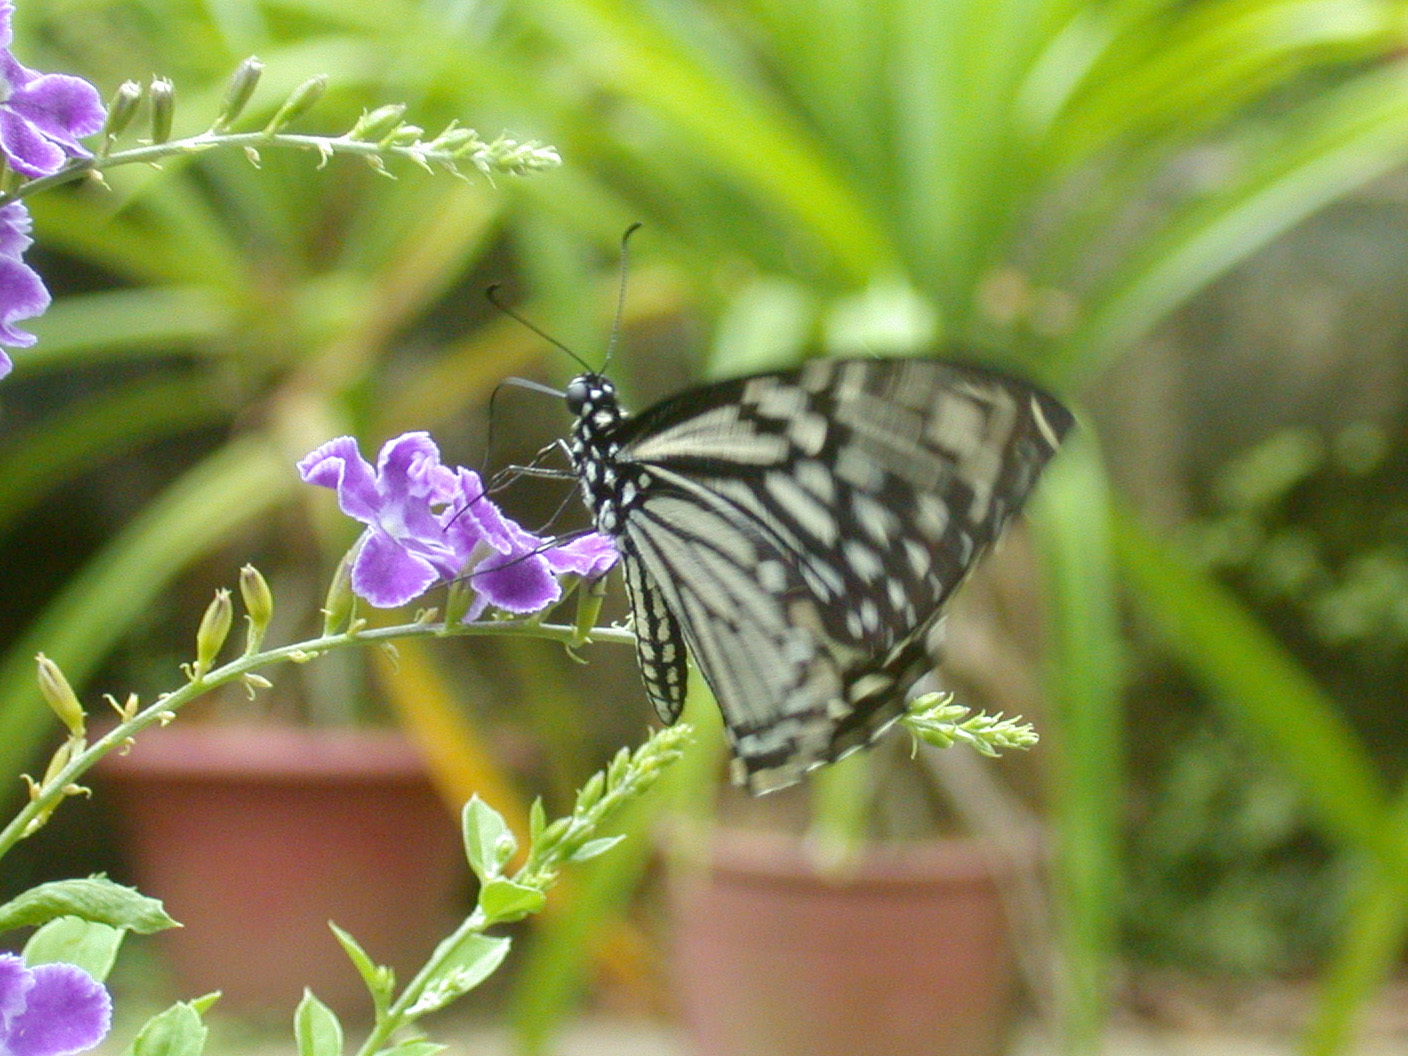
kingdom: Animalia
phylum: Arthropoda
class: Insecta
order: Lepidoptera
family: Papilionidae
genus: Chilasa
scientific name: Chilasa clytia
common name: Common mime
